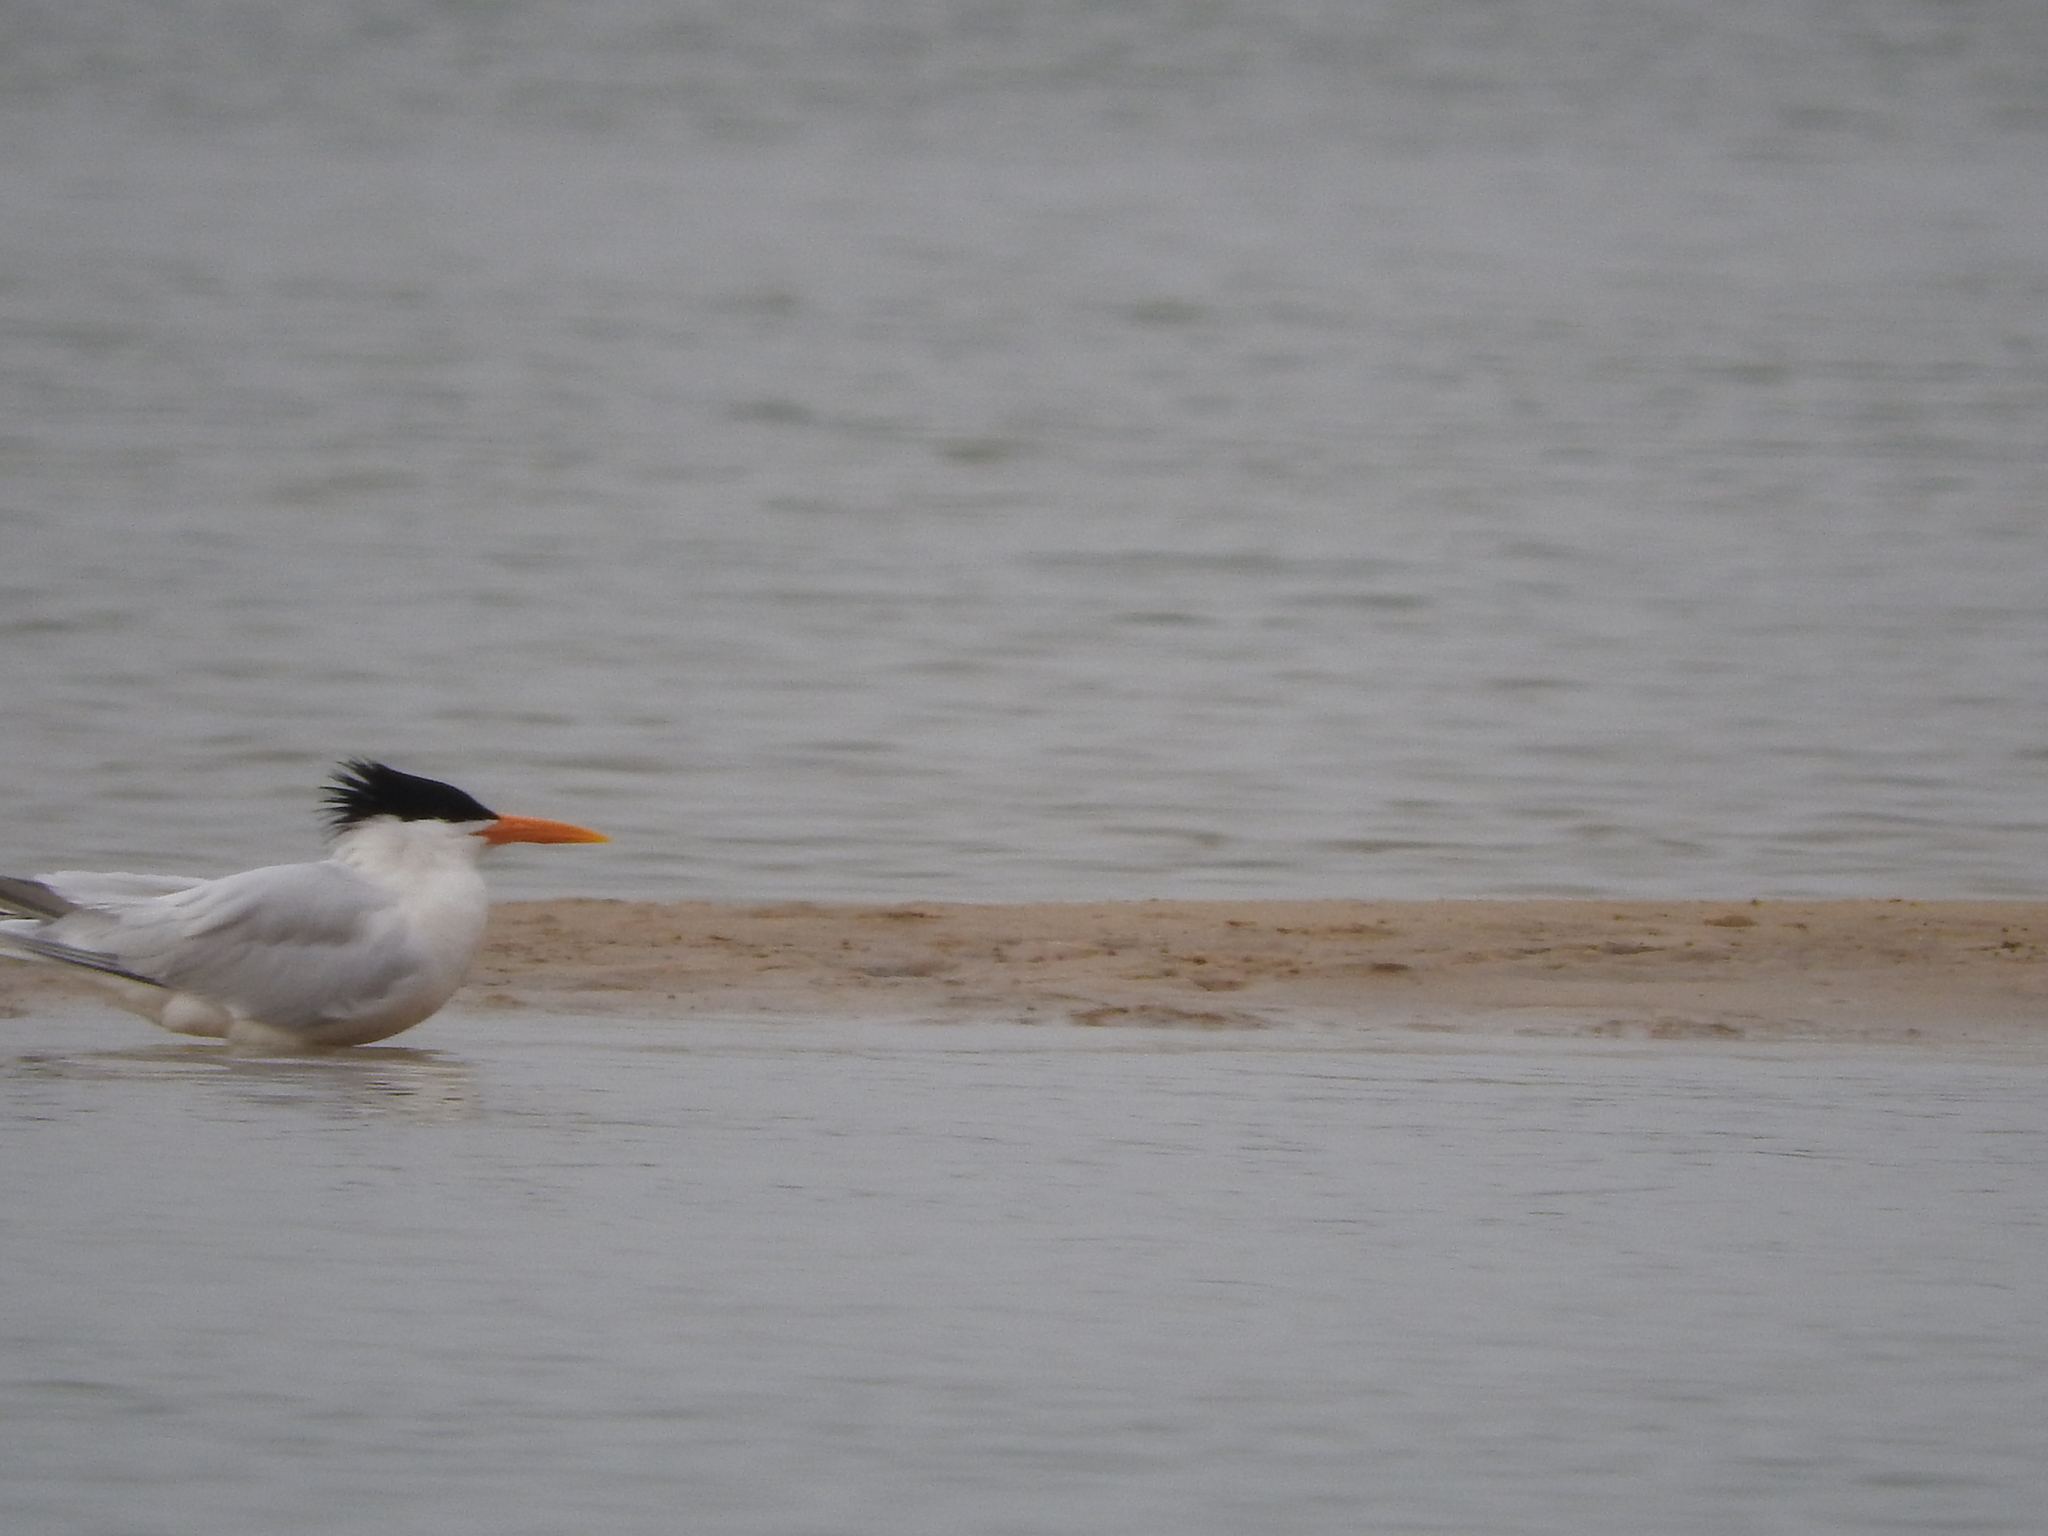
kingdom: Animalia
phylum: Chordata
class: Aves
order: Charadriiformes
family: Laridae
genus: Thalasseus
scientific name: Thalasseus albididorsalis
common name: West african crested tern
